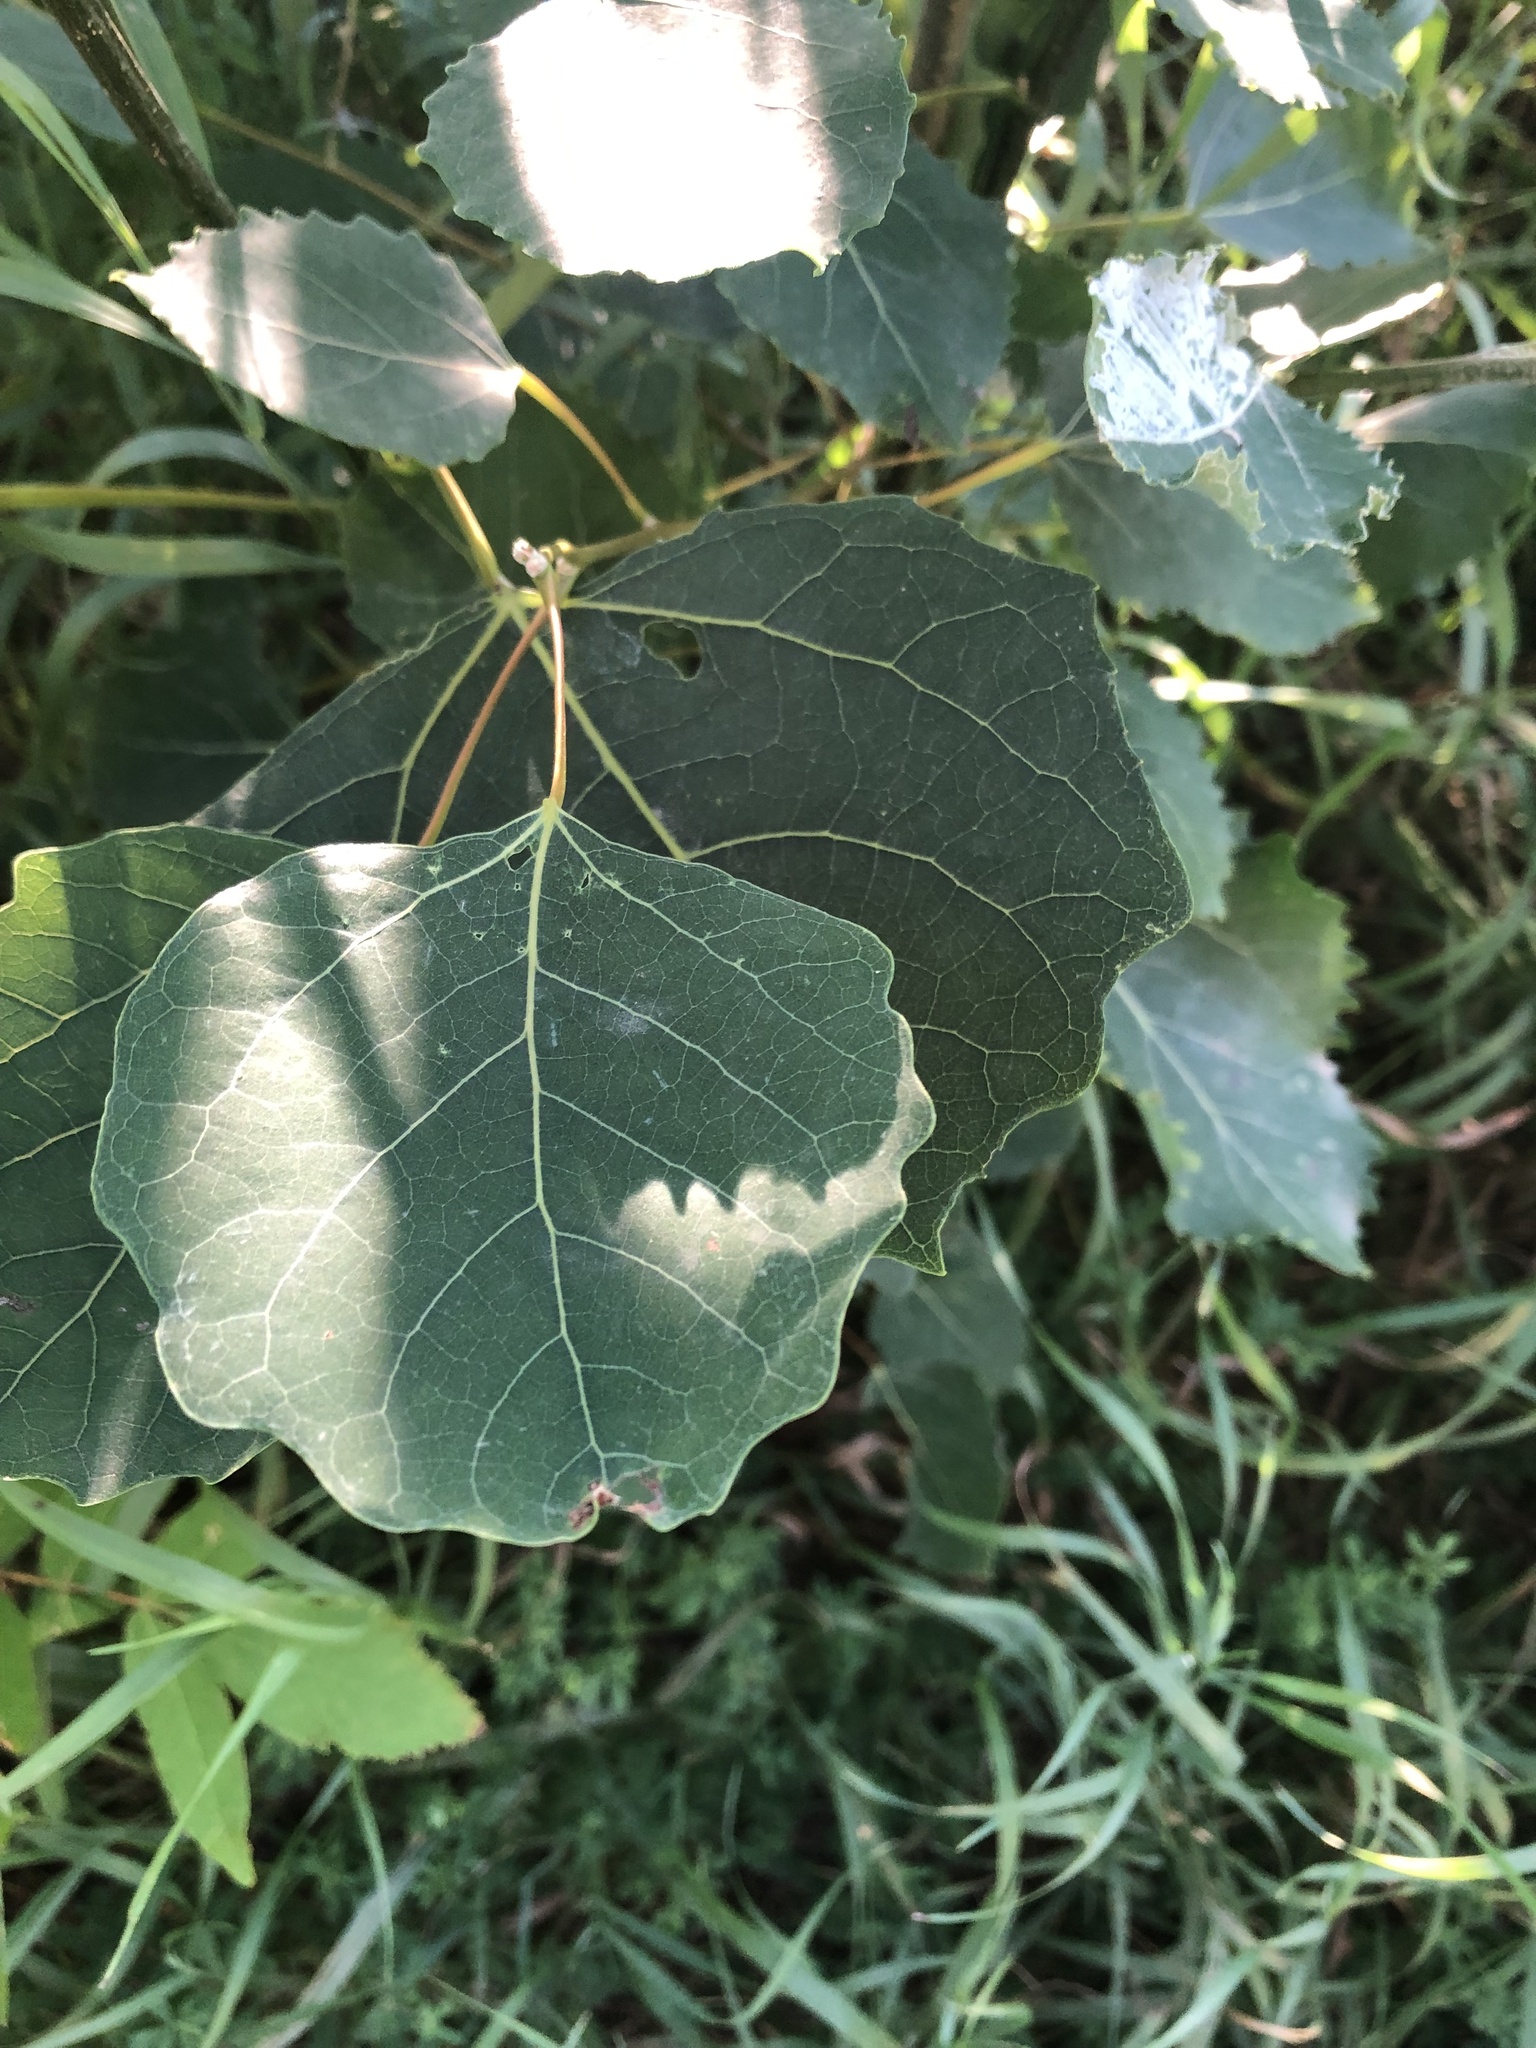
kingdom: Plantae
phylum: Tracheophyta
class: Magnoliopsida
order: Malpighiales
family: Salicaceae
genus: Populus
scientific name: Populus grandidentata
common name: Bigtooth aspen
